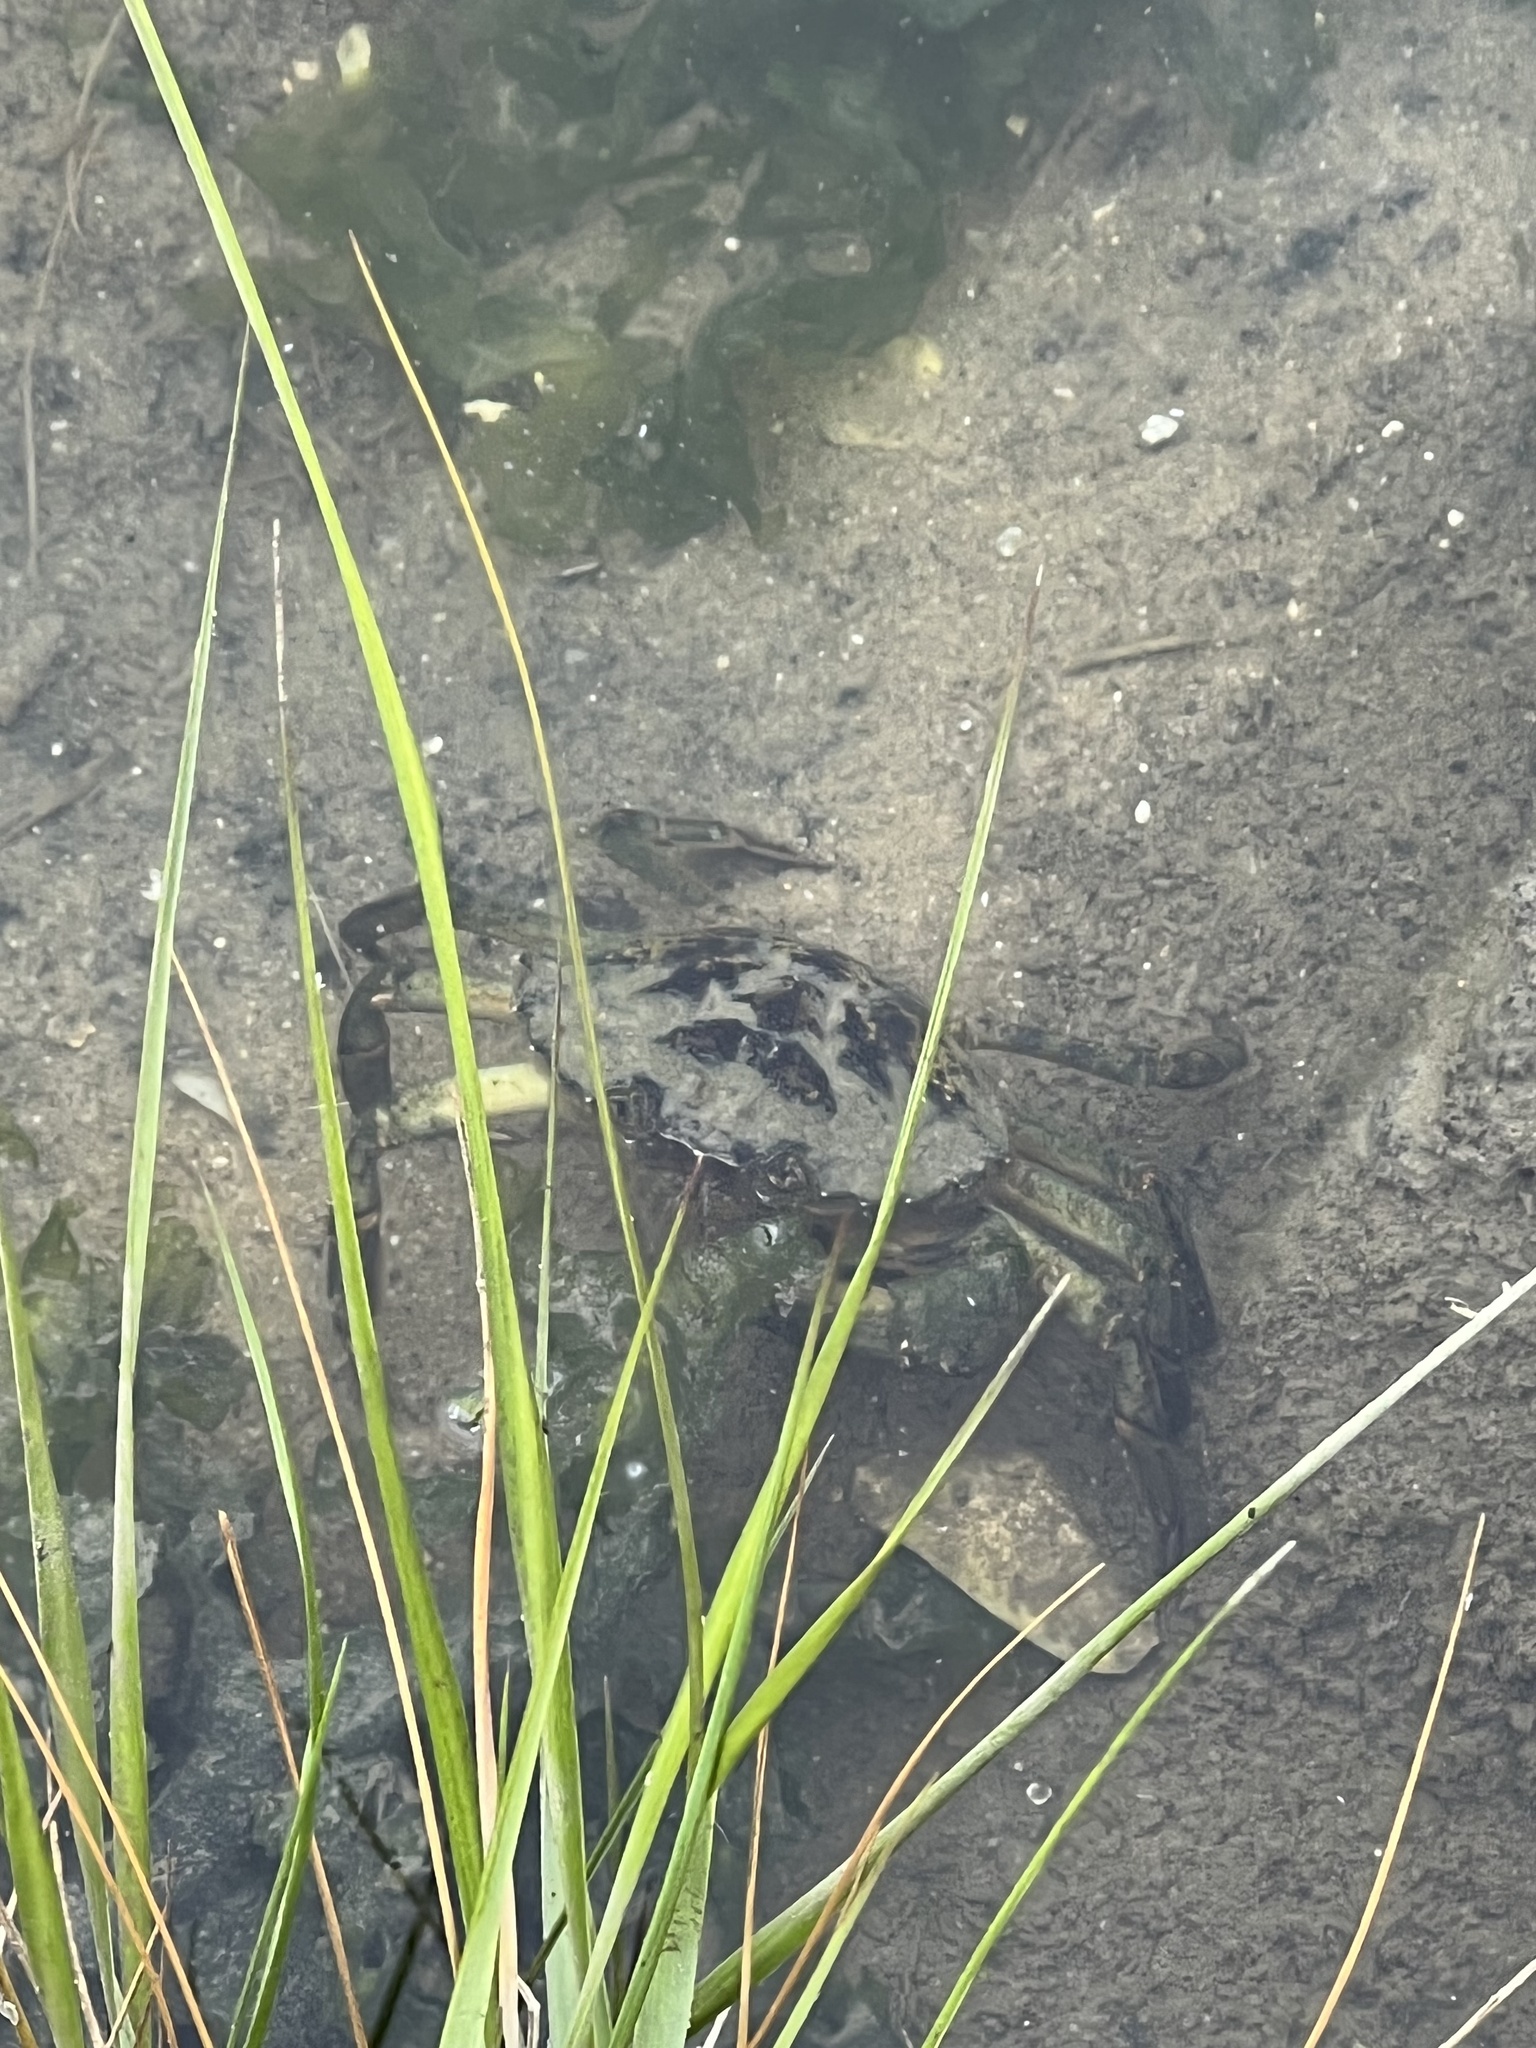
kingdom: Animalia
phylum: Arthropoda
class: Malacostraca
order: Decapoda
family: Carcinidae
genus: Carcinus
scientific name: Carcinus maenas
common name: European green crab
